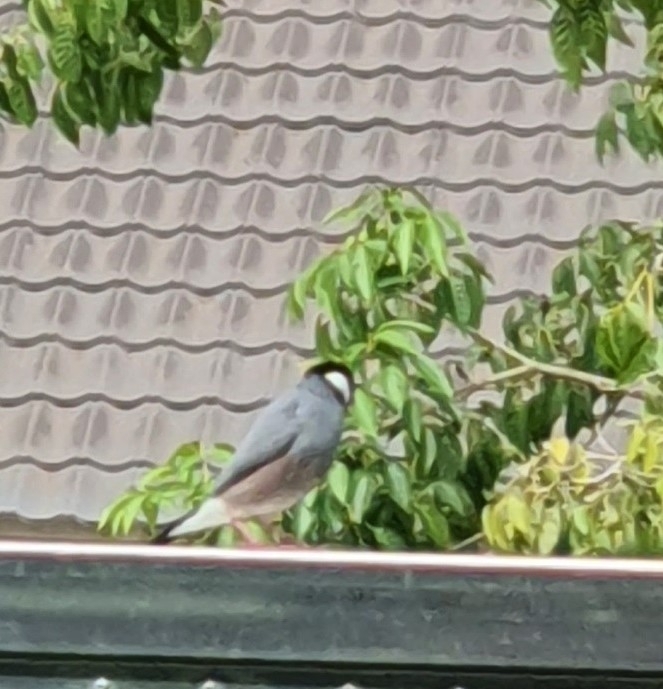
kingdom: Animalia
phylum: Chordata
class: Aves
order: Passeriformes
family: Estrildidae
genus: Lonchura
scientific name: Lonchura oryzivora
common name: Java sparrow
